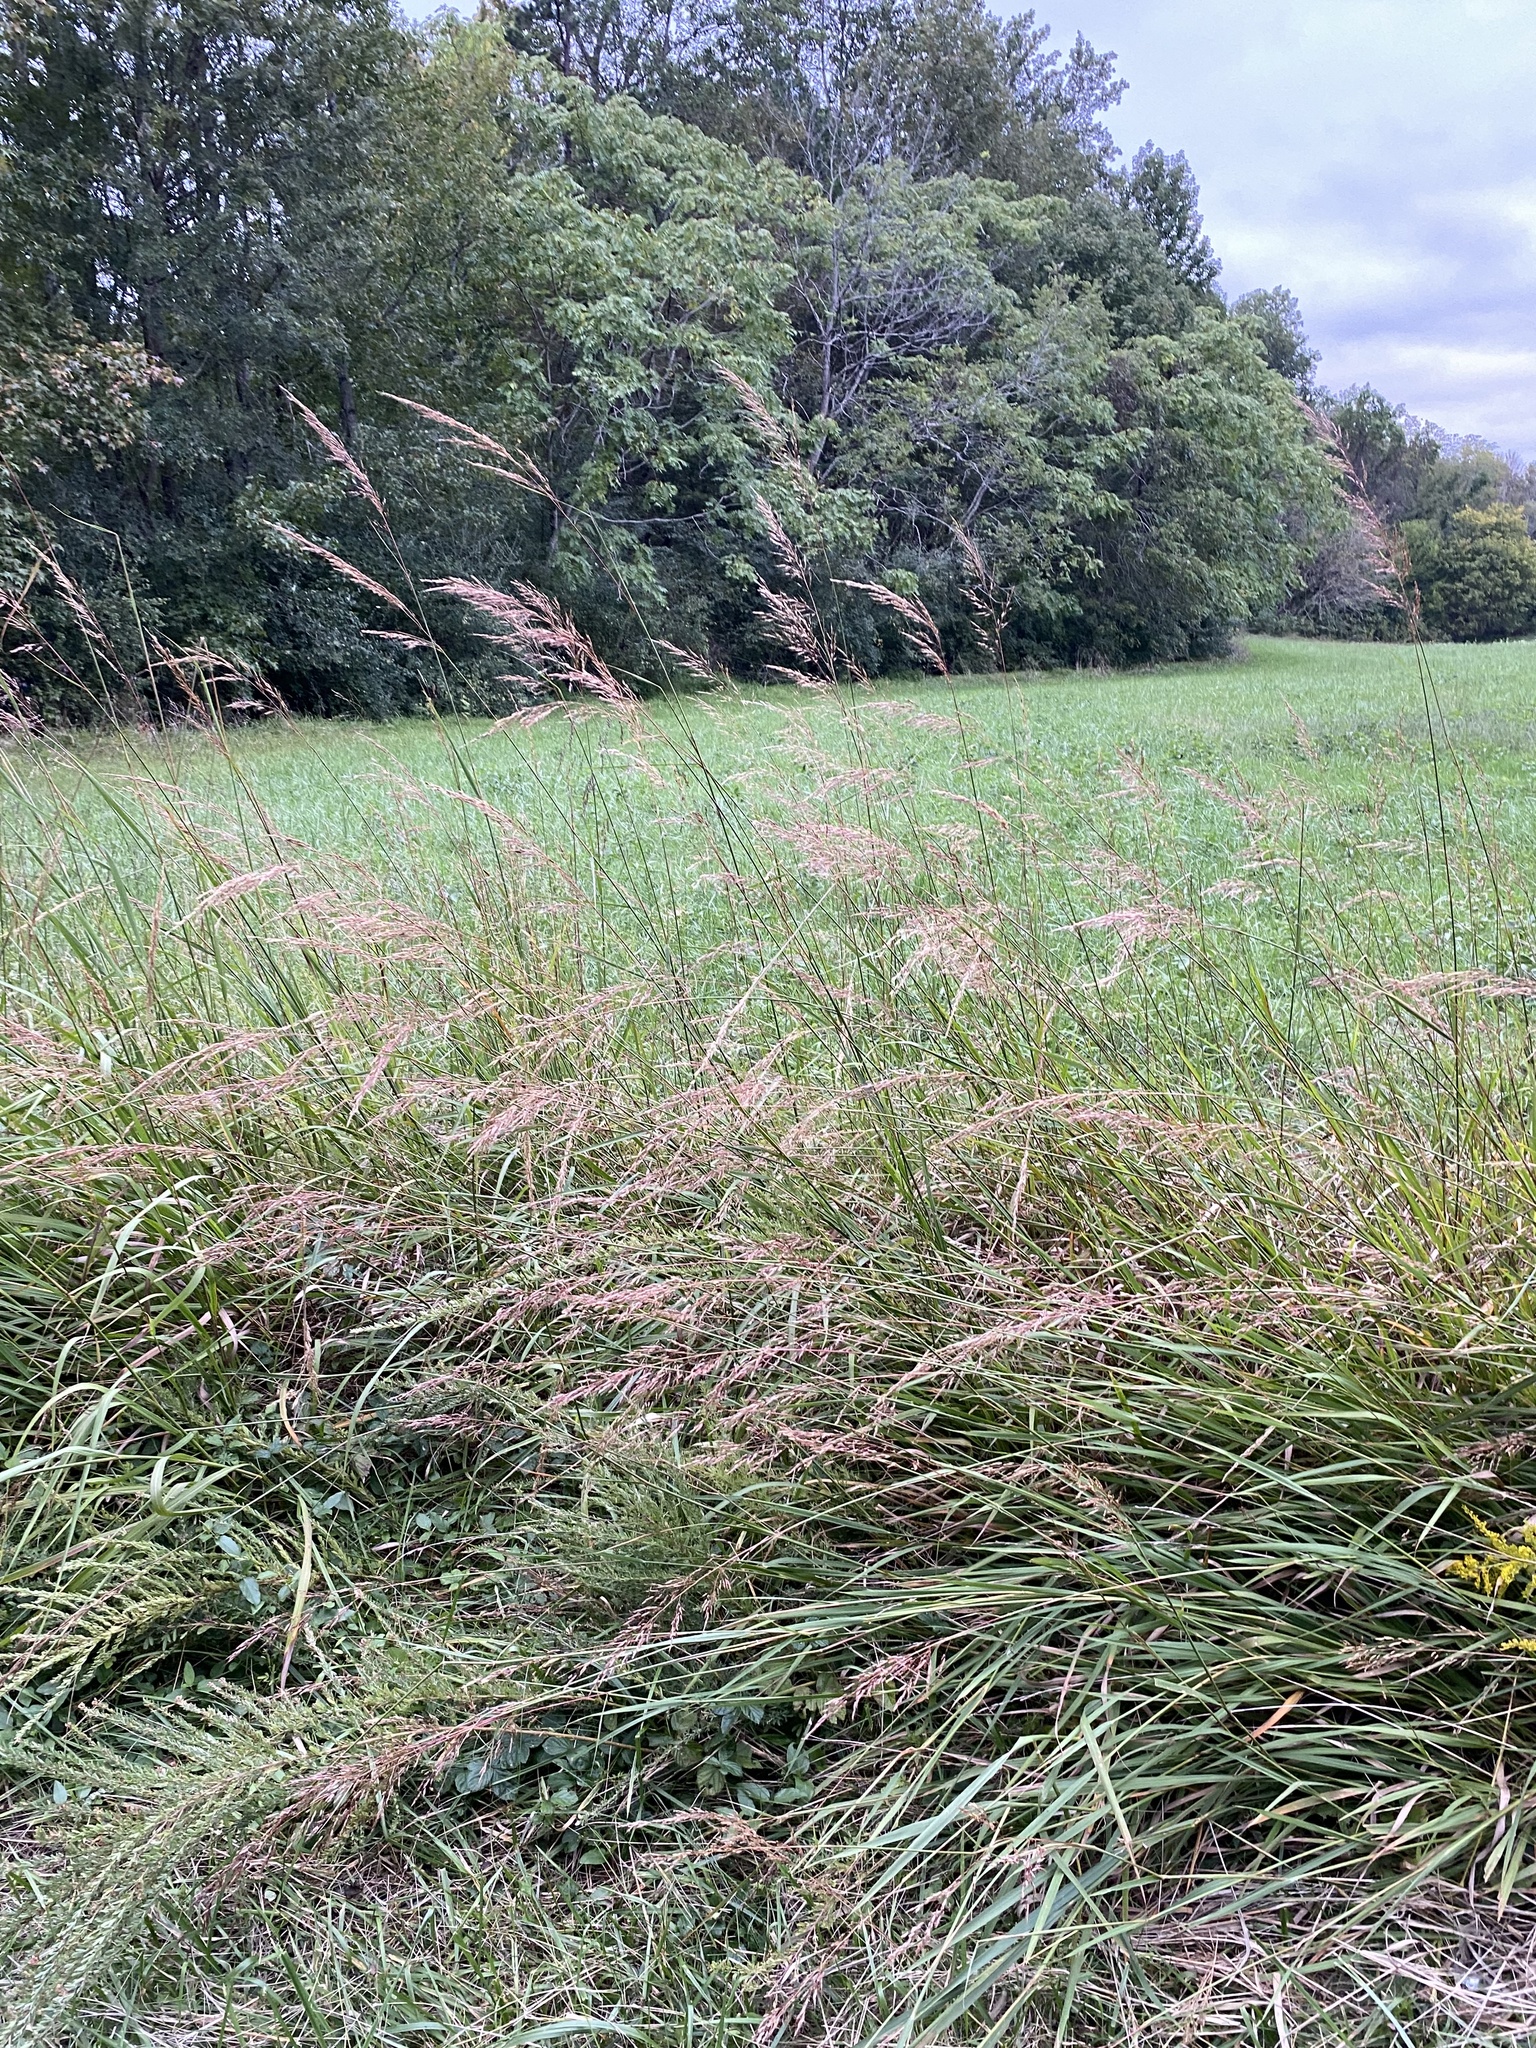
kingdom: Plantae
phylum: Tracheophyta
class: Liliopsida
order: Poales
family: Poaceae
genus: Sorghastrum
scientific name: Sorghastrum nutans
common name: Indian grass
